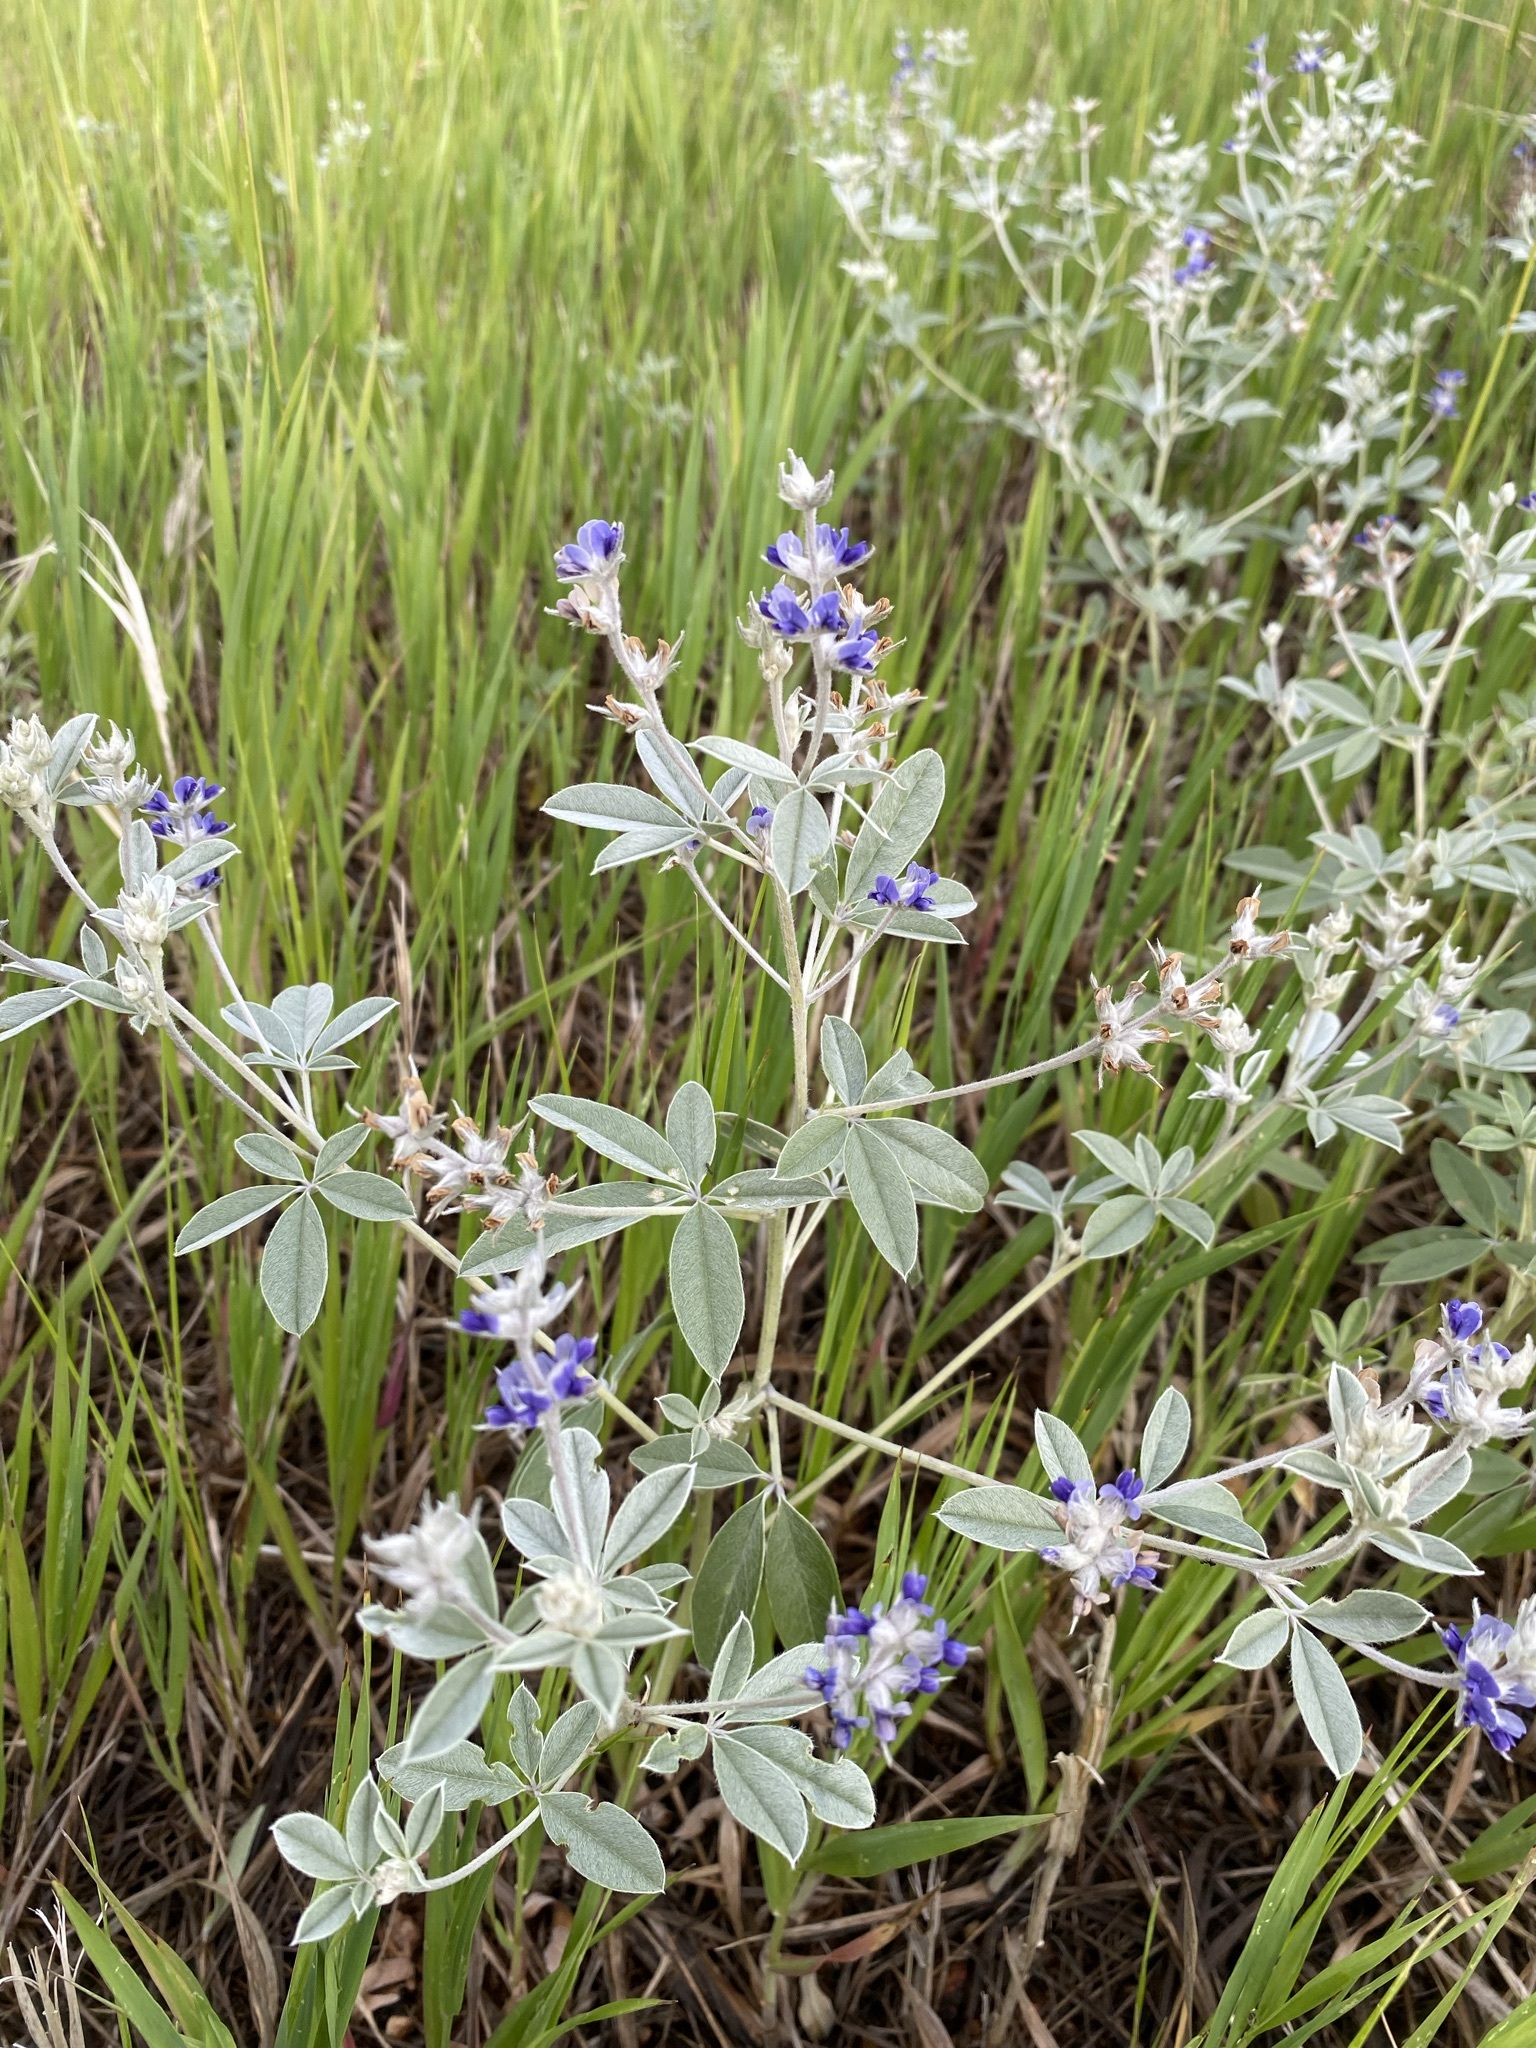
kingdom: Plantae
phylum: Tracheophyta
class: Magnoliopsida
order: Fabales
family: Fabaceae
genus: Pediomelum
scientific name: Pediomelum argophyllum
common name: Silver-leaved indian breadroot
